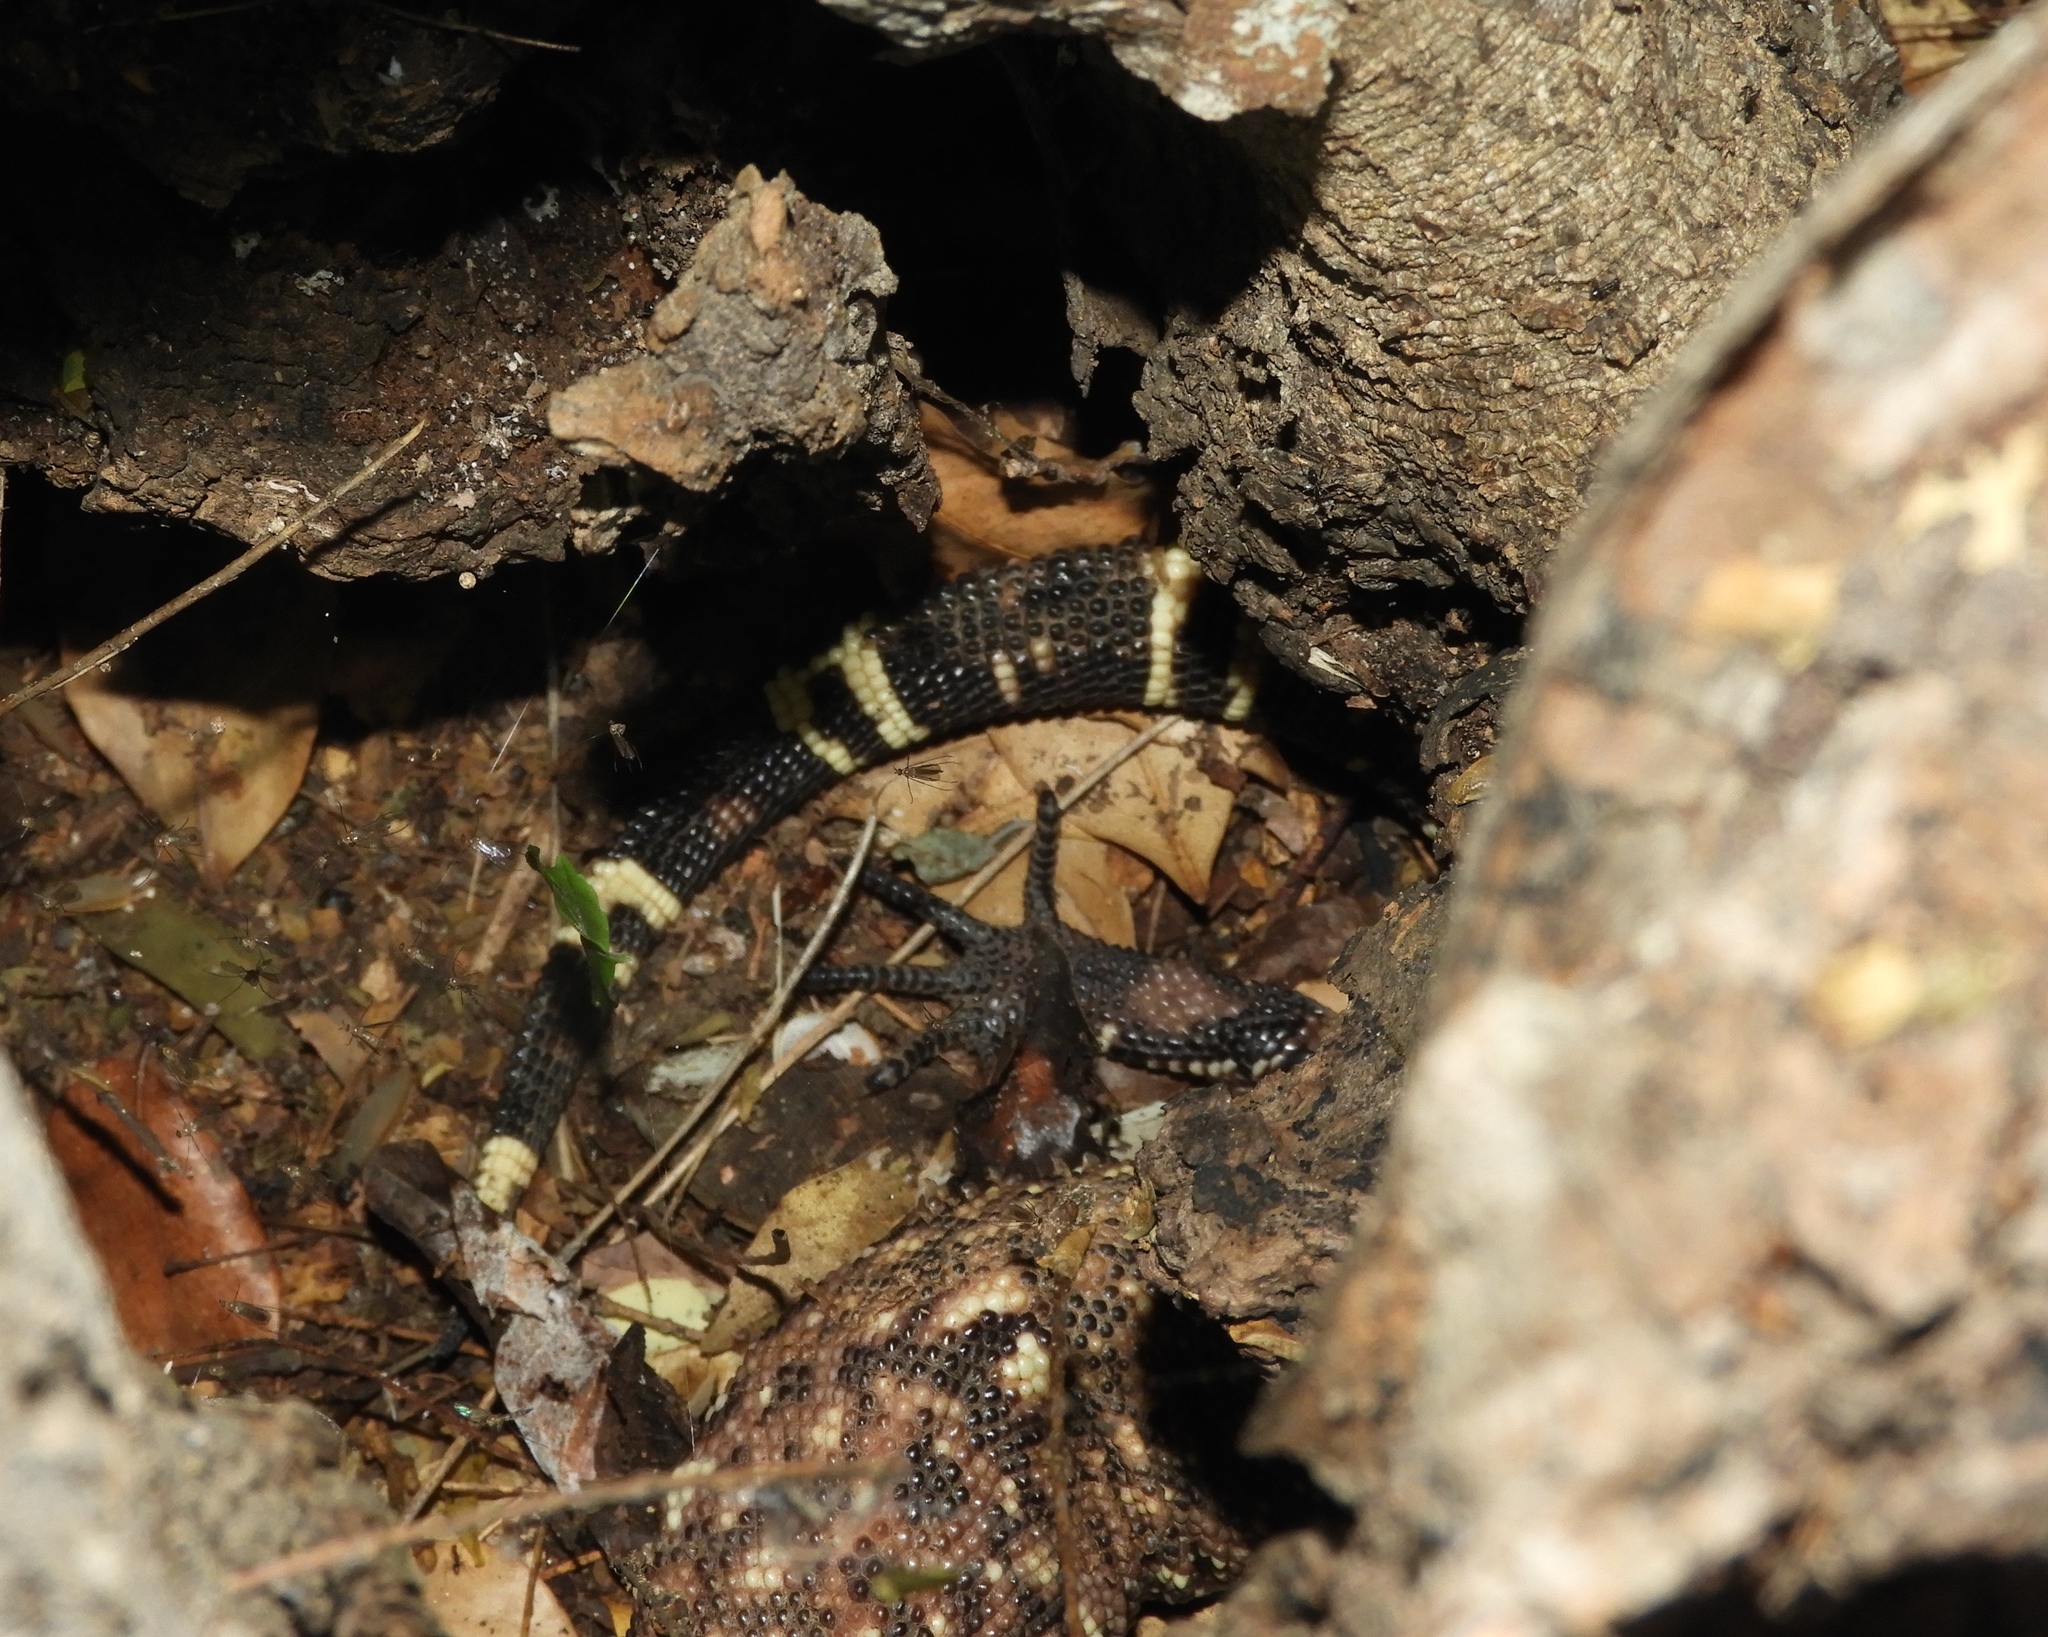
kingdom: Animalia
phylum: Chordata
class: Squamata
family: Helodermatidae
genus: Heloderma
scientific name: Heloderma horridum
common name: Mexican beaded lizard
